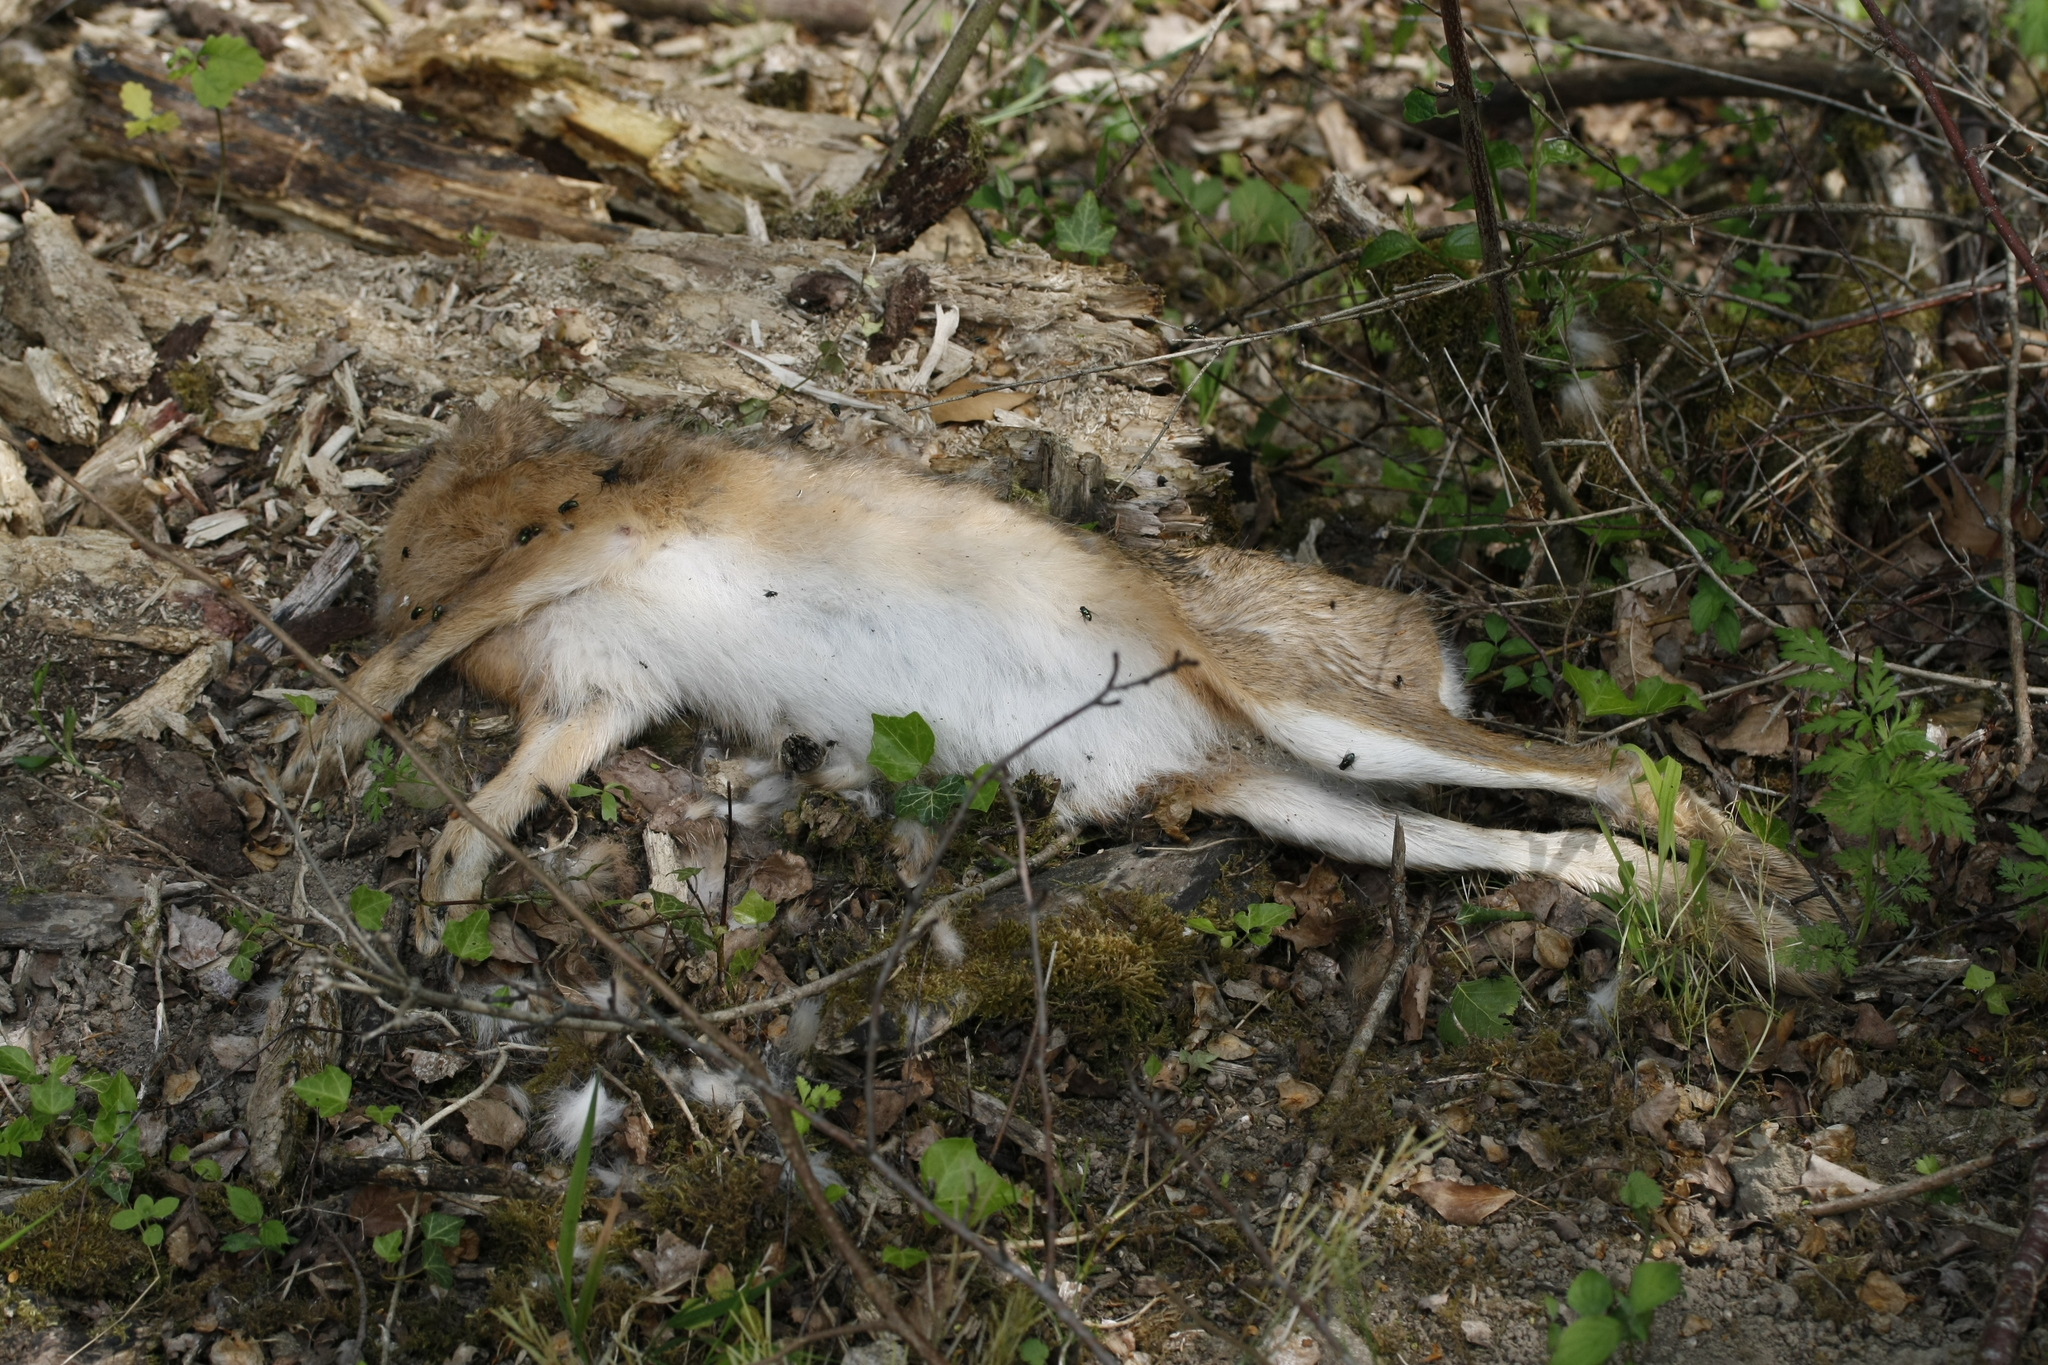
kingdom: Animalia
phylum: Chordata
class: Mammalia
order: Lagomorpha
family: Leporidae
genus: Lepus
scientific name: Lepus europaeus
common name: European hare
